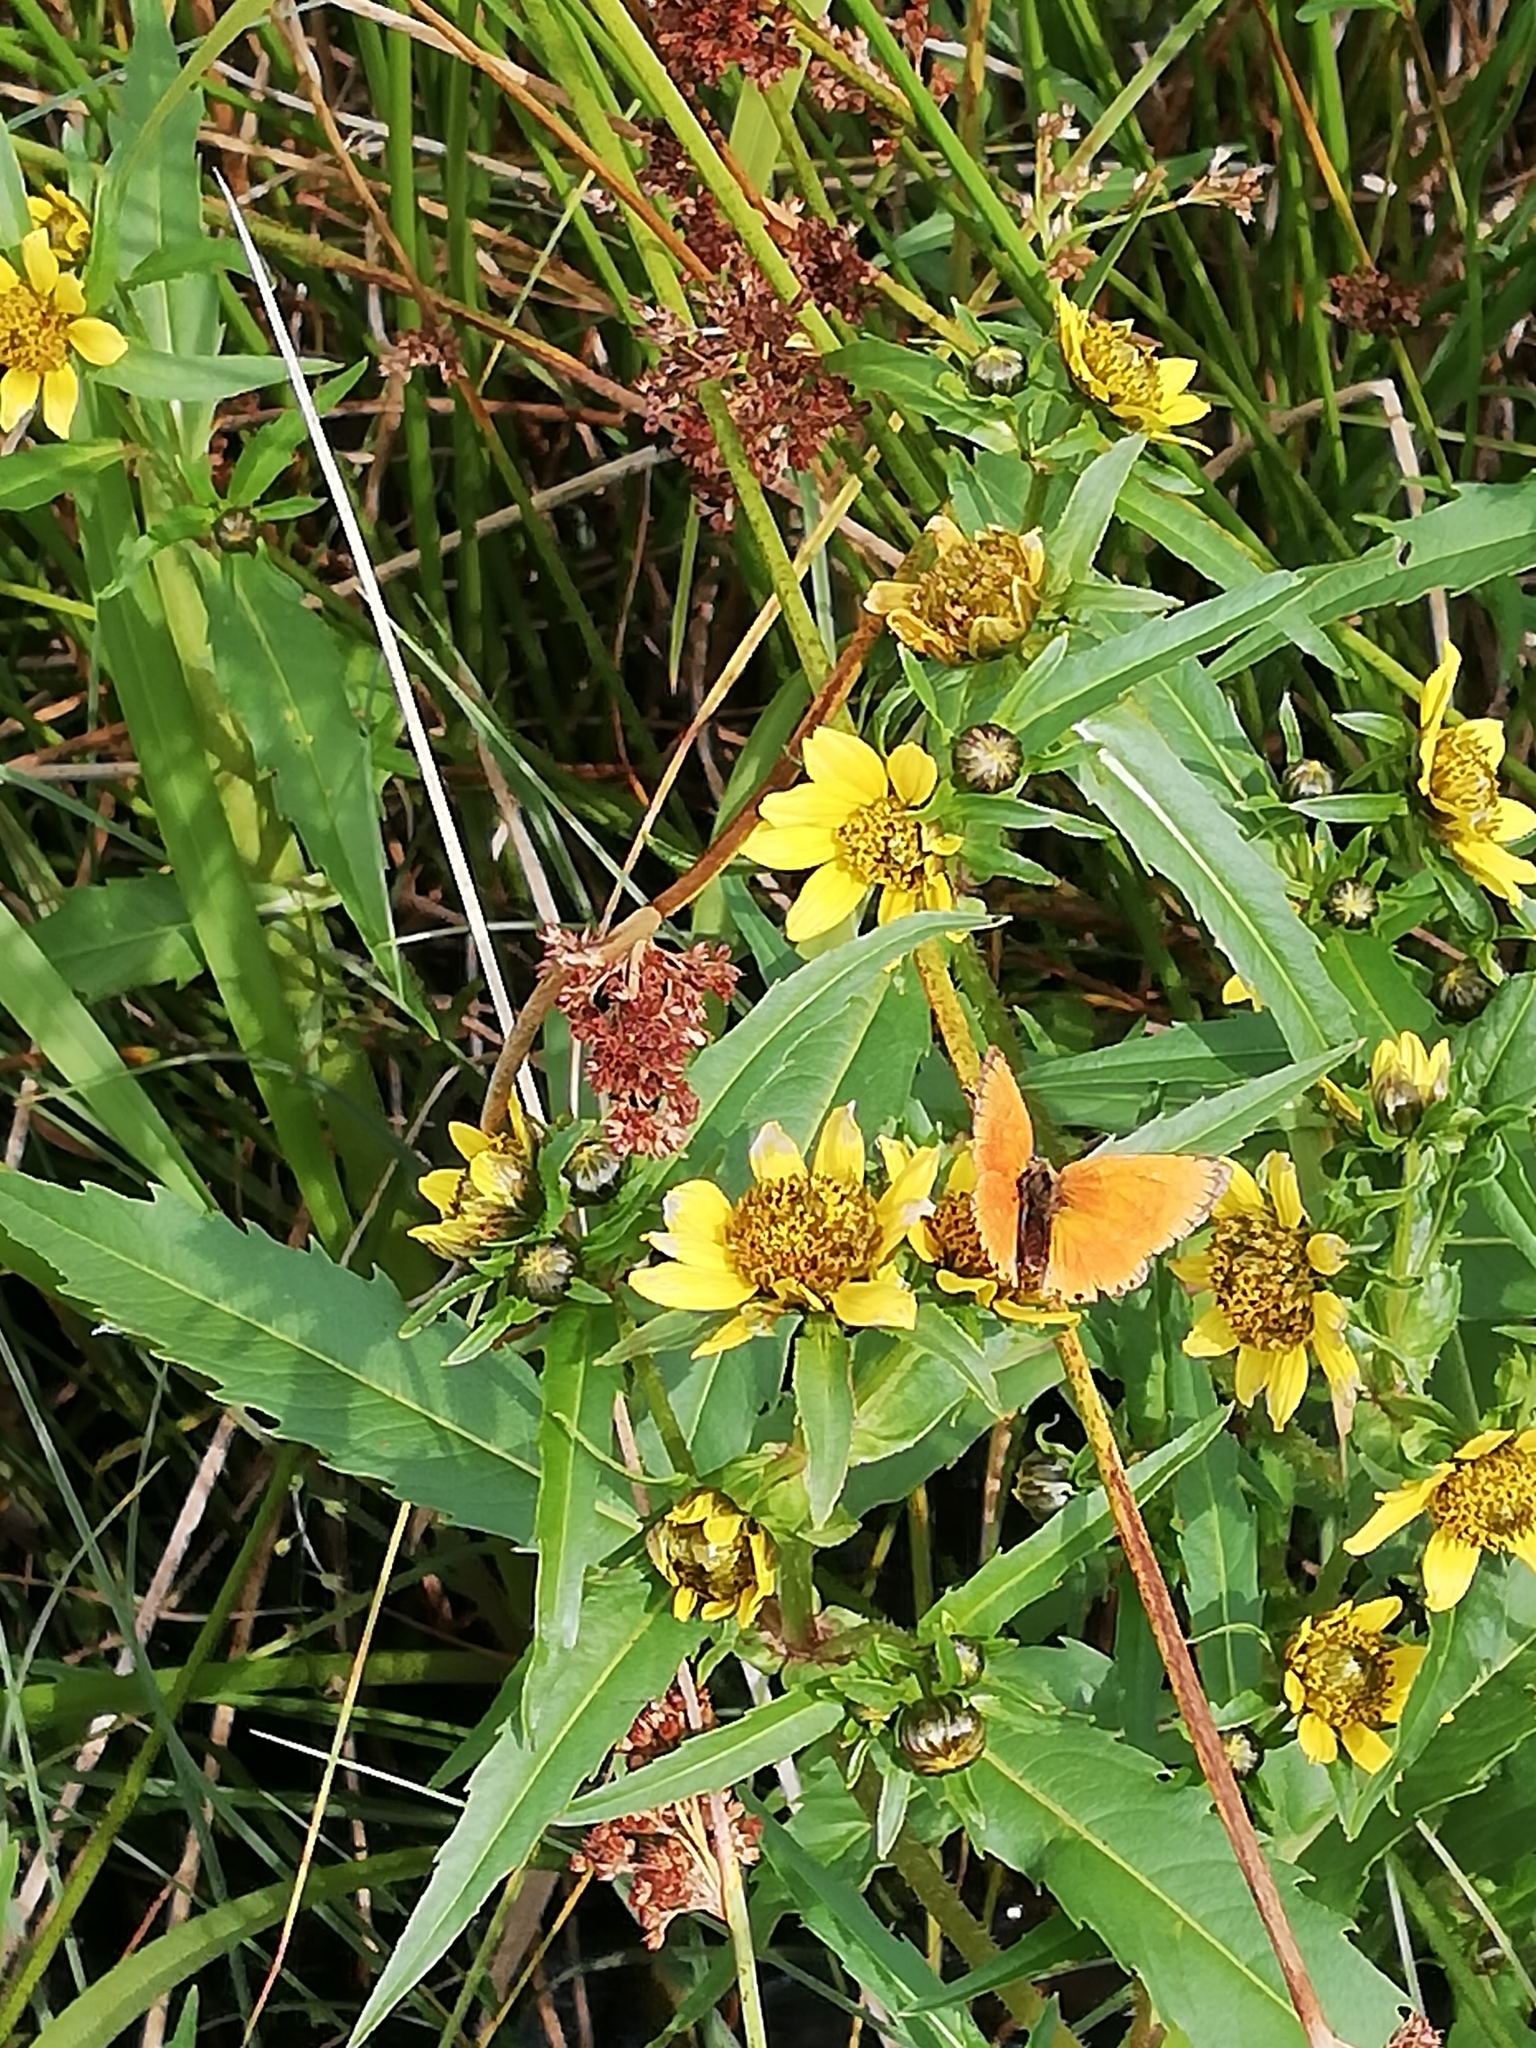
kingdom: Animalia
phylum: Arthropoda
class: Insecta
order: Lepidoptera
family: Lycaenidae
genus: Lycaena
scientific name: Lycaena virgaureae
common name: Scarce copper
